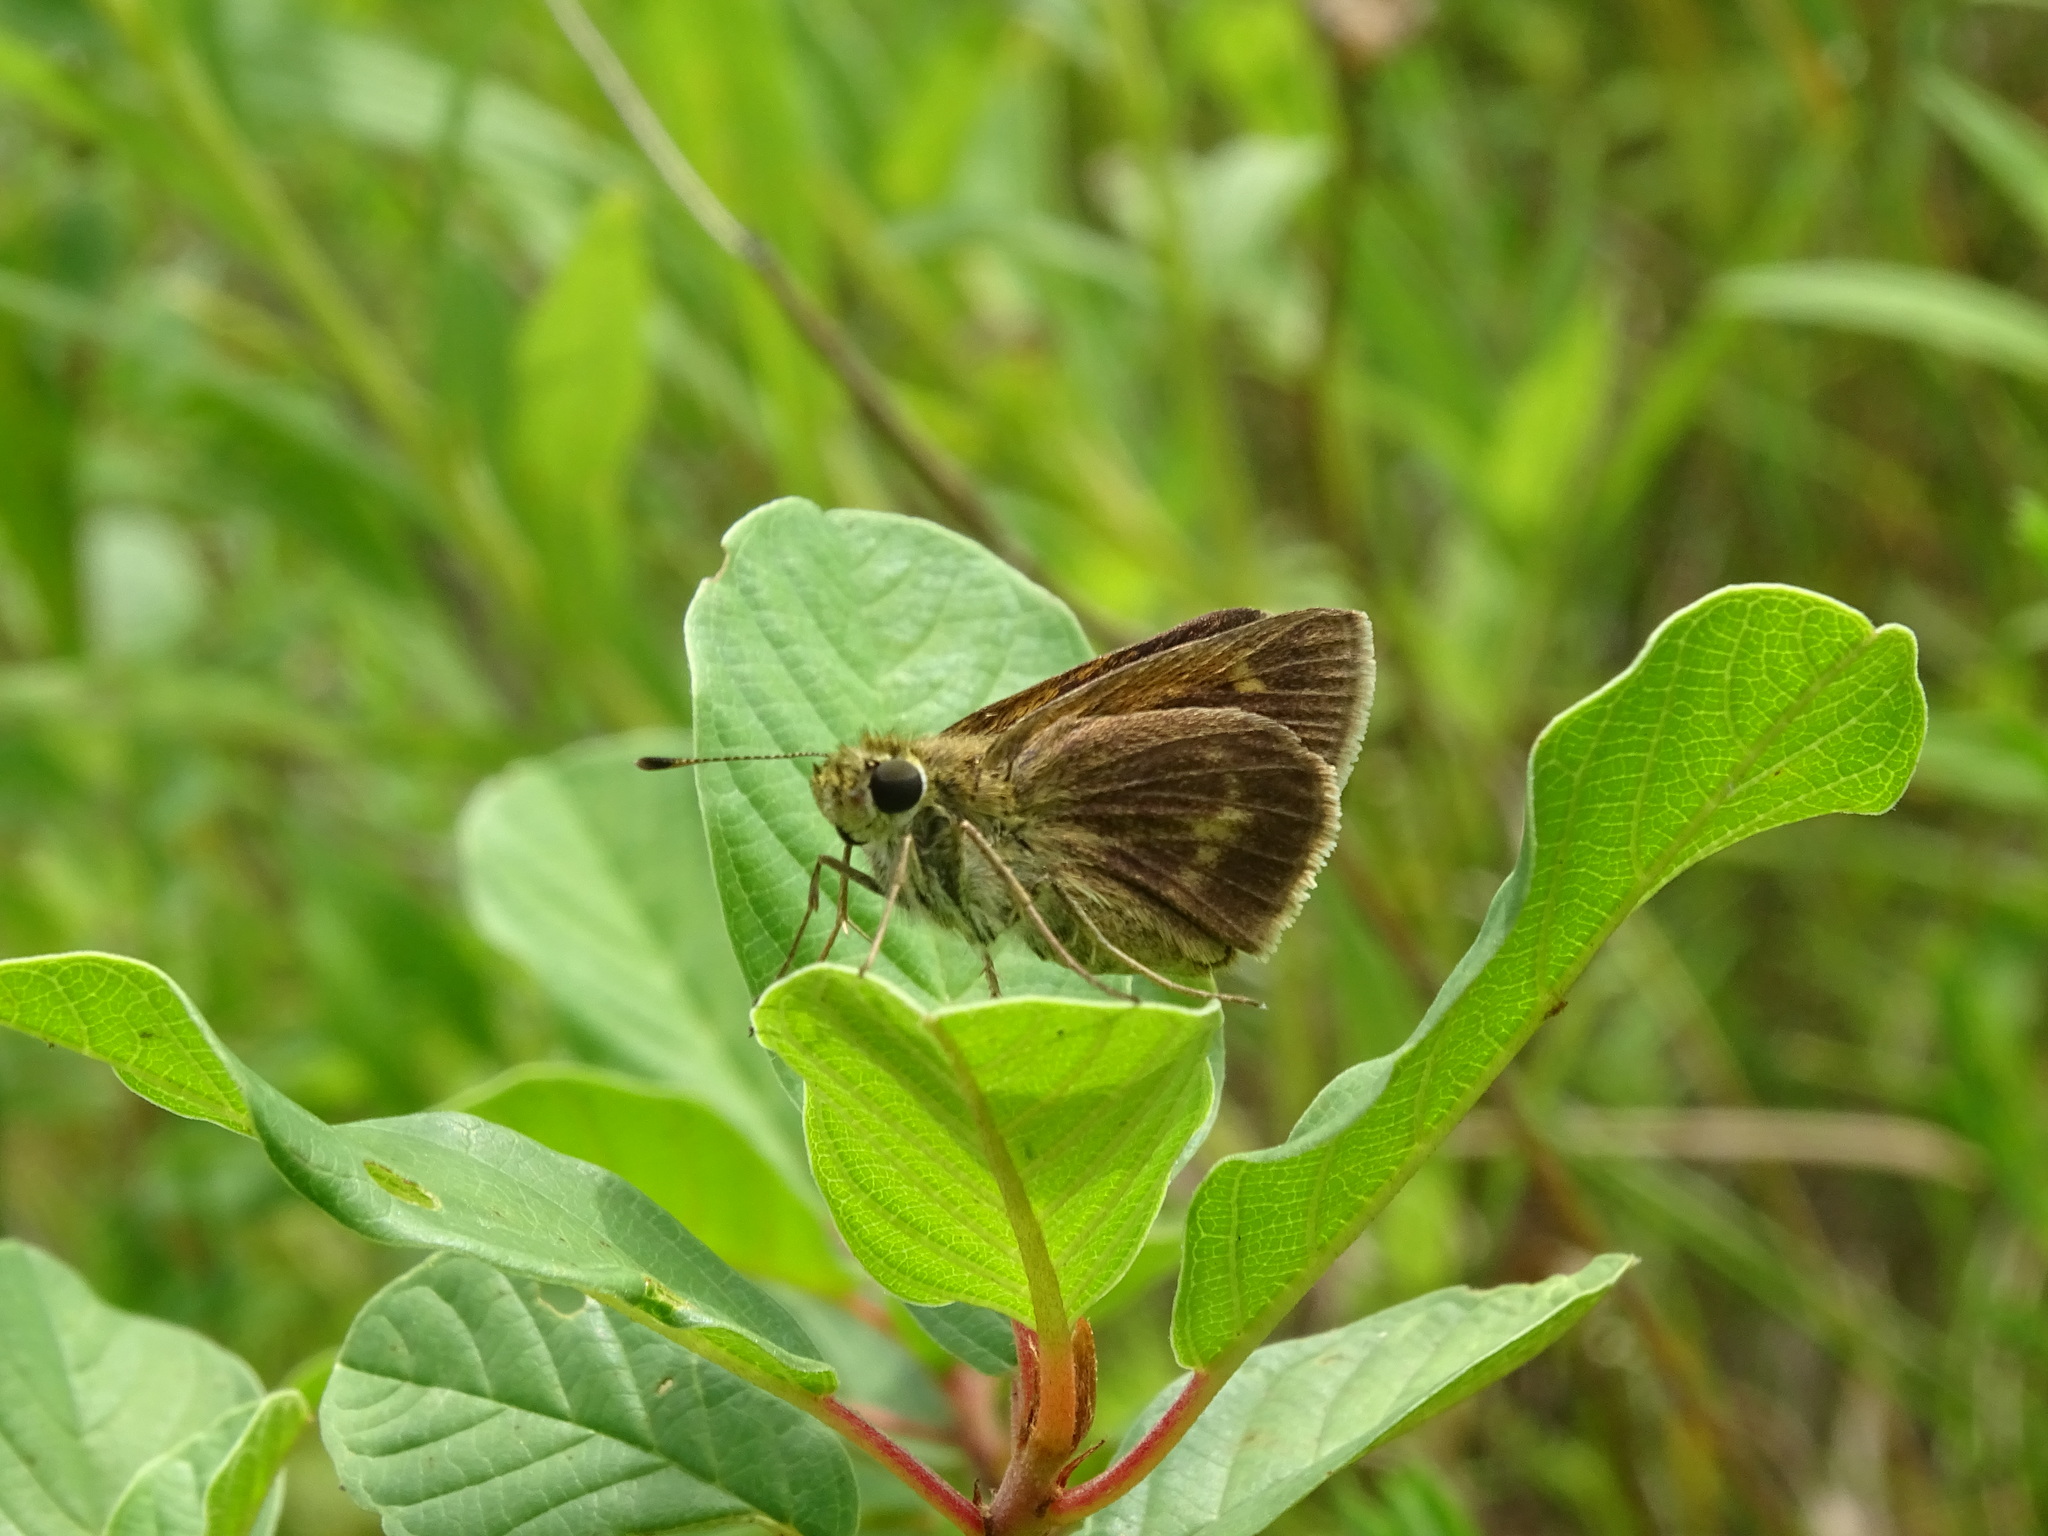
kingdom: Animalia
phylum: Arthropoda
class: Insecta
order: Lepidoptera
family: Hesperiidae
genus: Polites
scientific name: Polites egeremet
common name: Northern broken-dash
